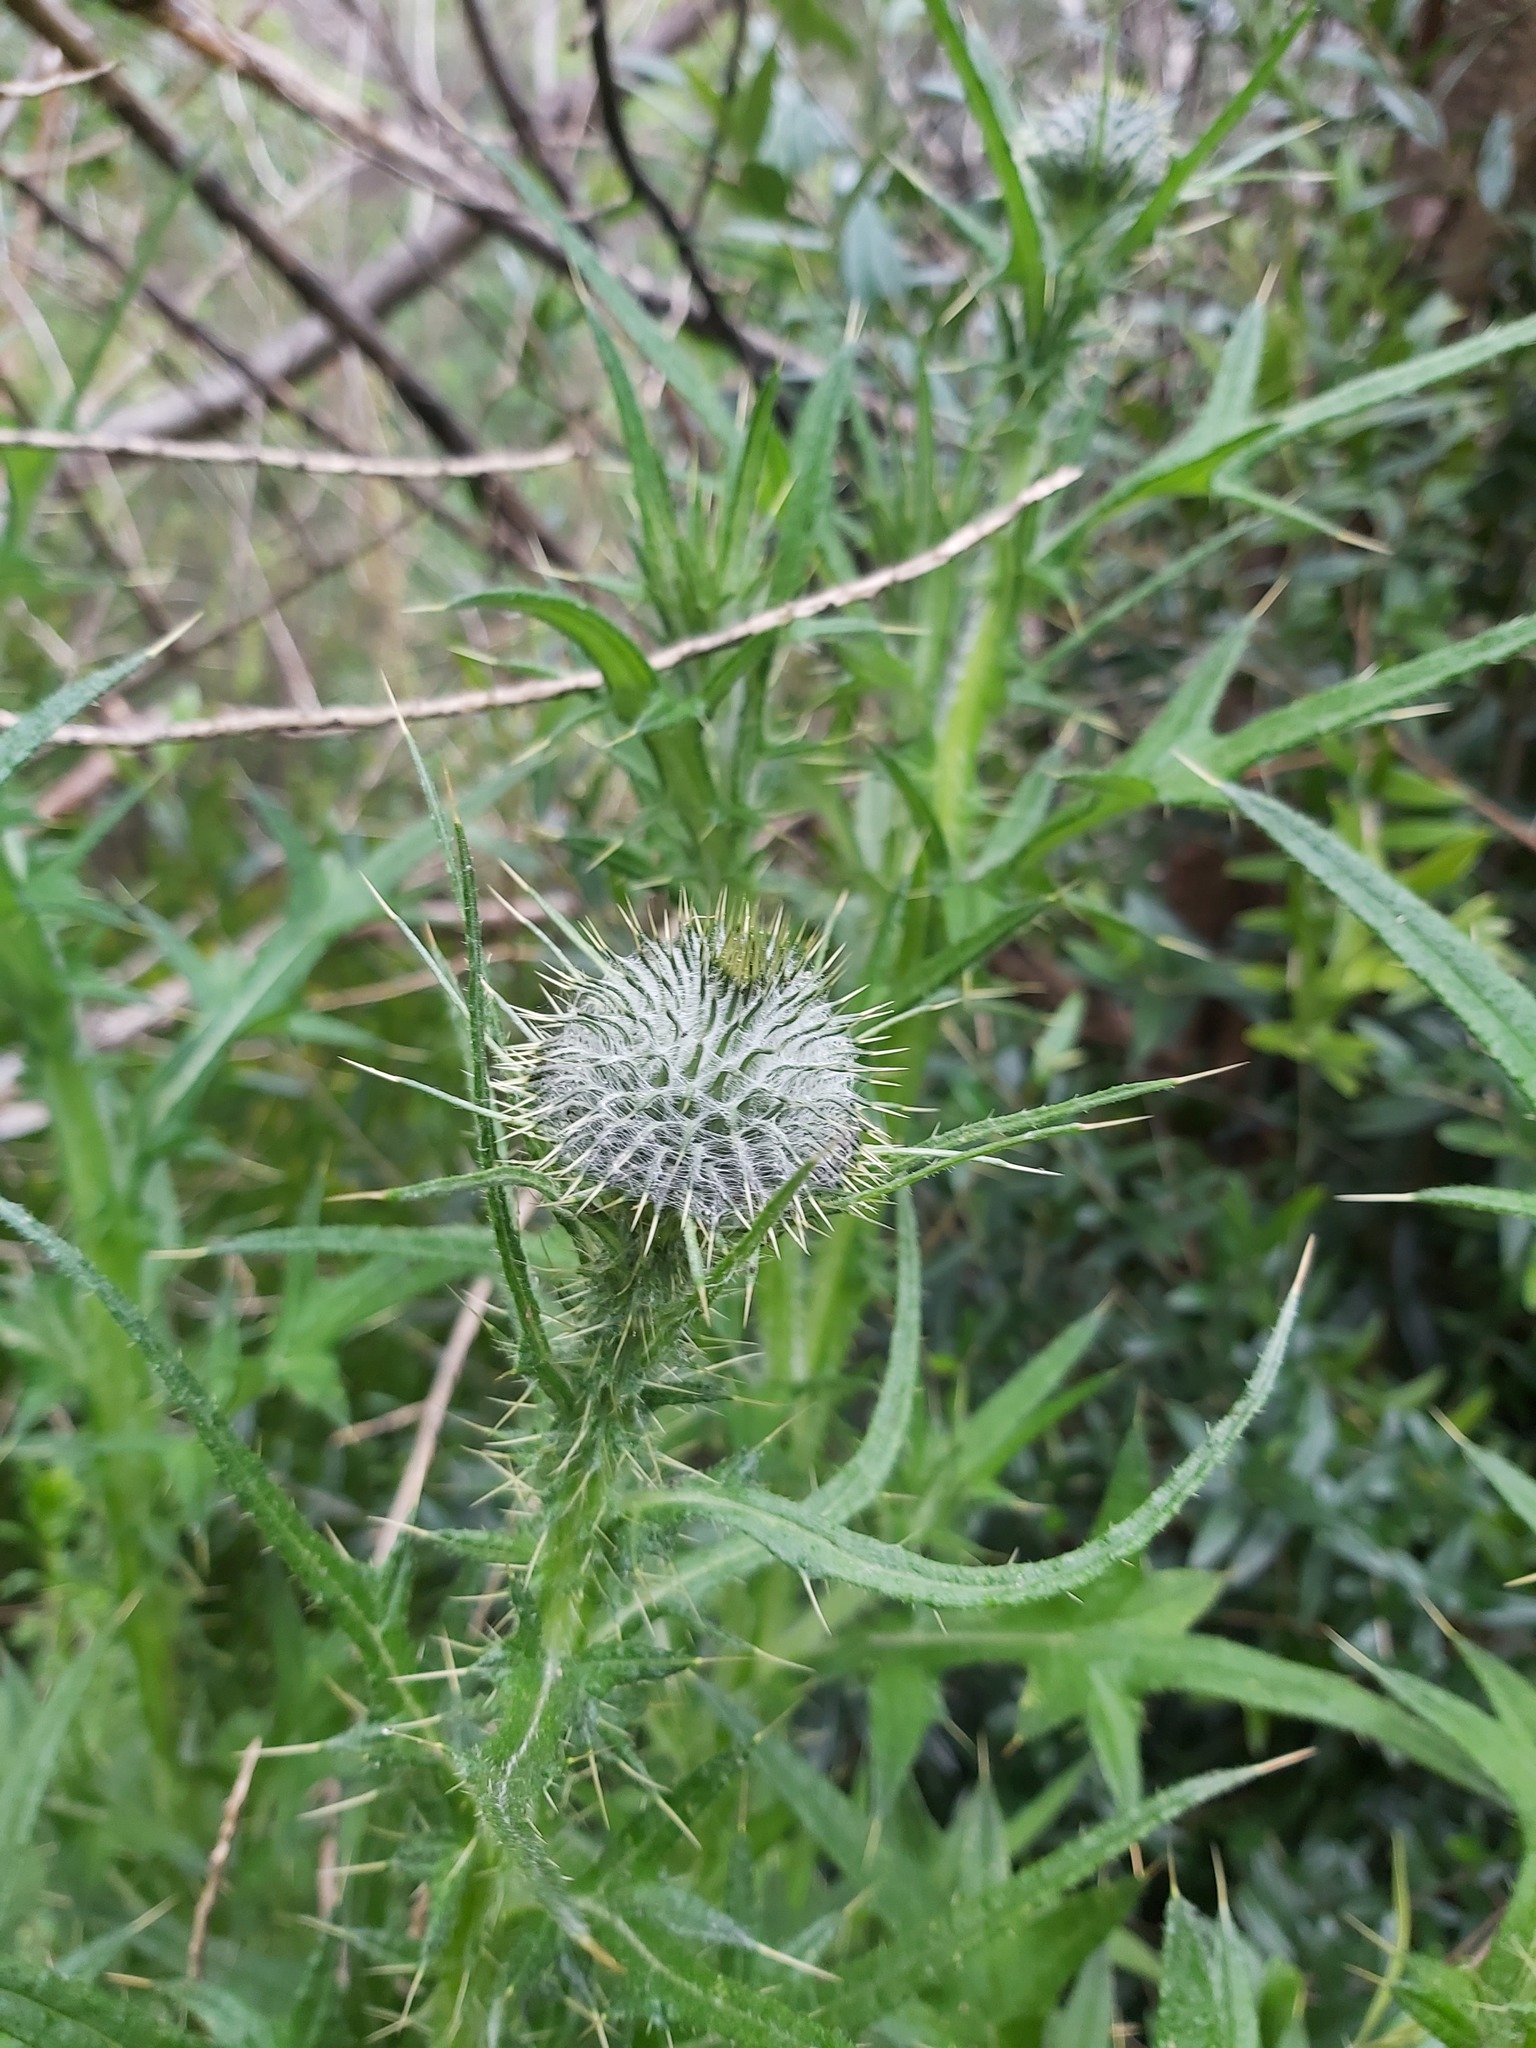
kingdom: Plantae
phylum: Tracheophyta
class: Magnoliopsida
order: Asterales
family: Asteraceae
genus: Cirsium
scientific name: Cirsium vulgare
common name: Bull thistle
